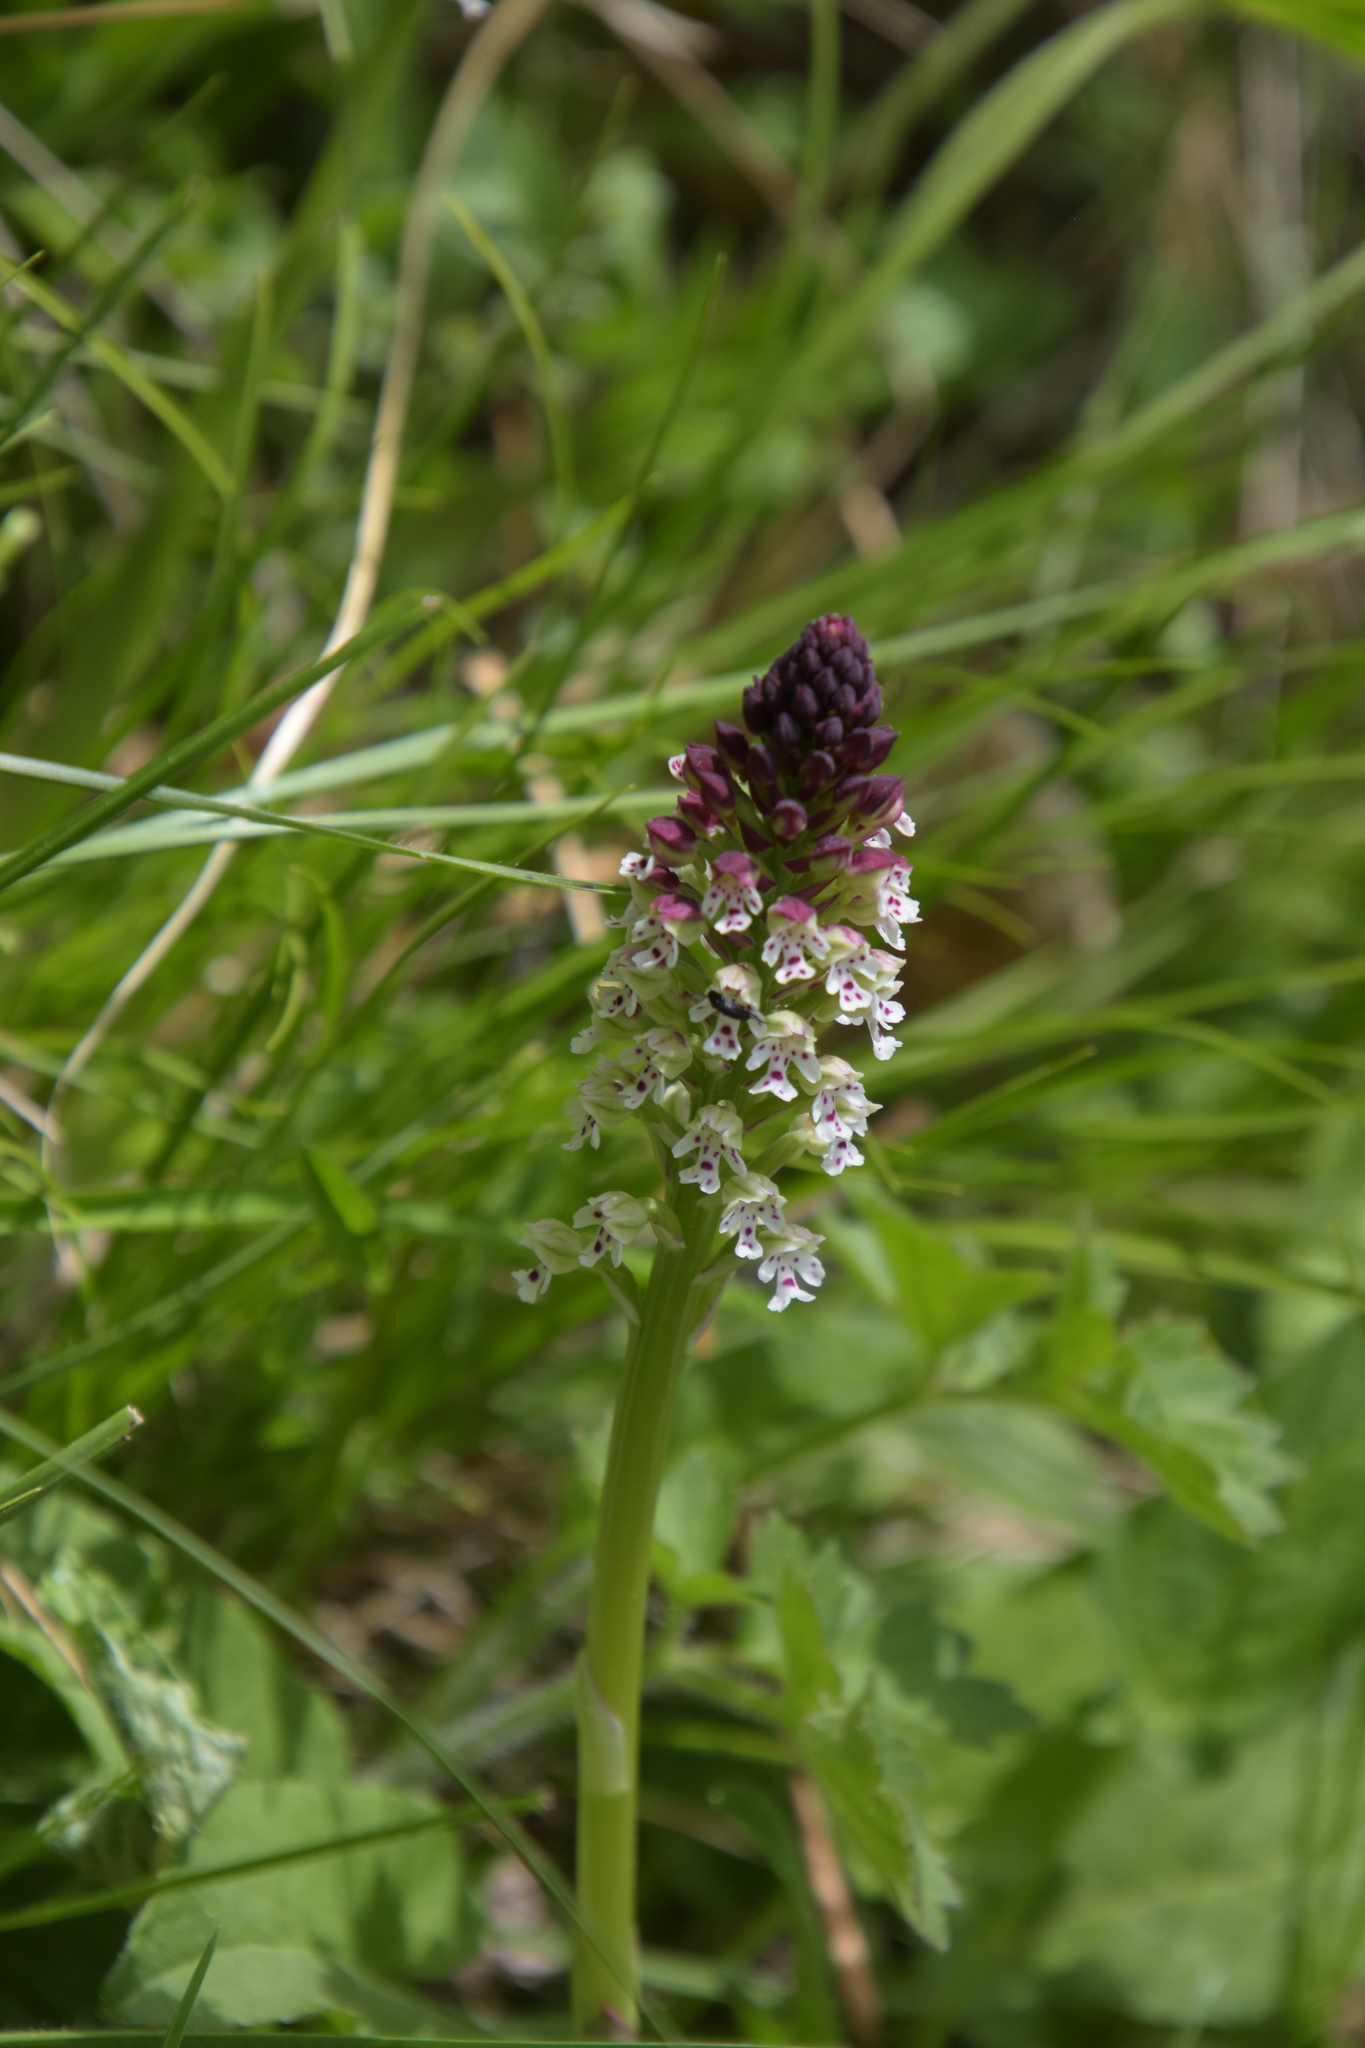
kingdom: Plantae
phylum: Tracheophyta
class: Liliopsida
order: Asparagales
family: Orchidaceae
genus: Neotinea
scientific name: Neotinea ustulata
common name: Burnt orchid
